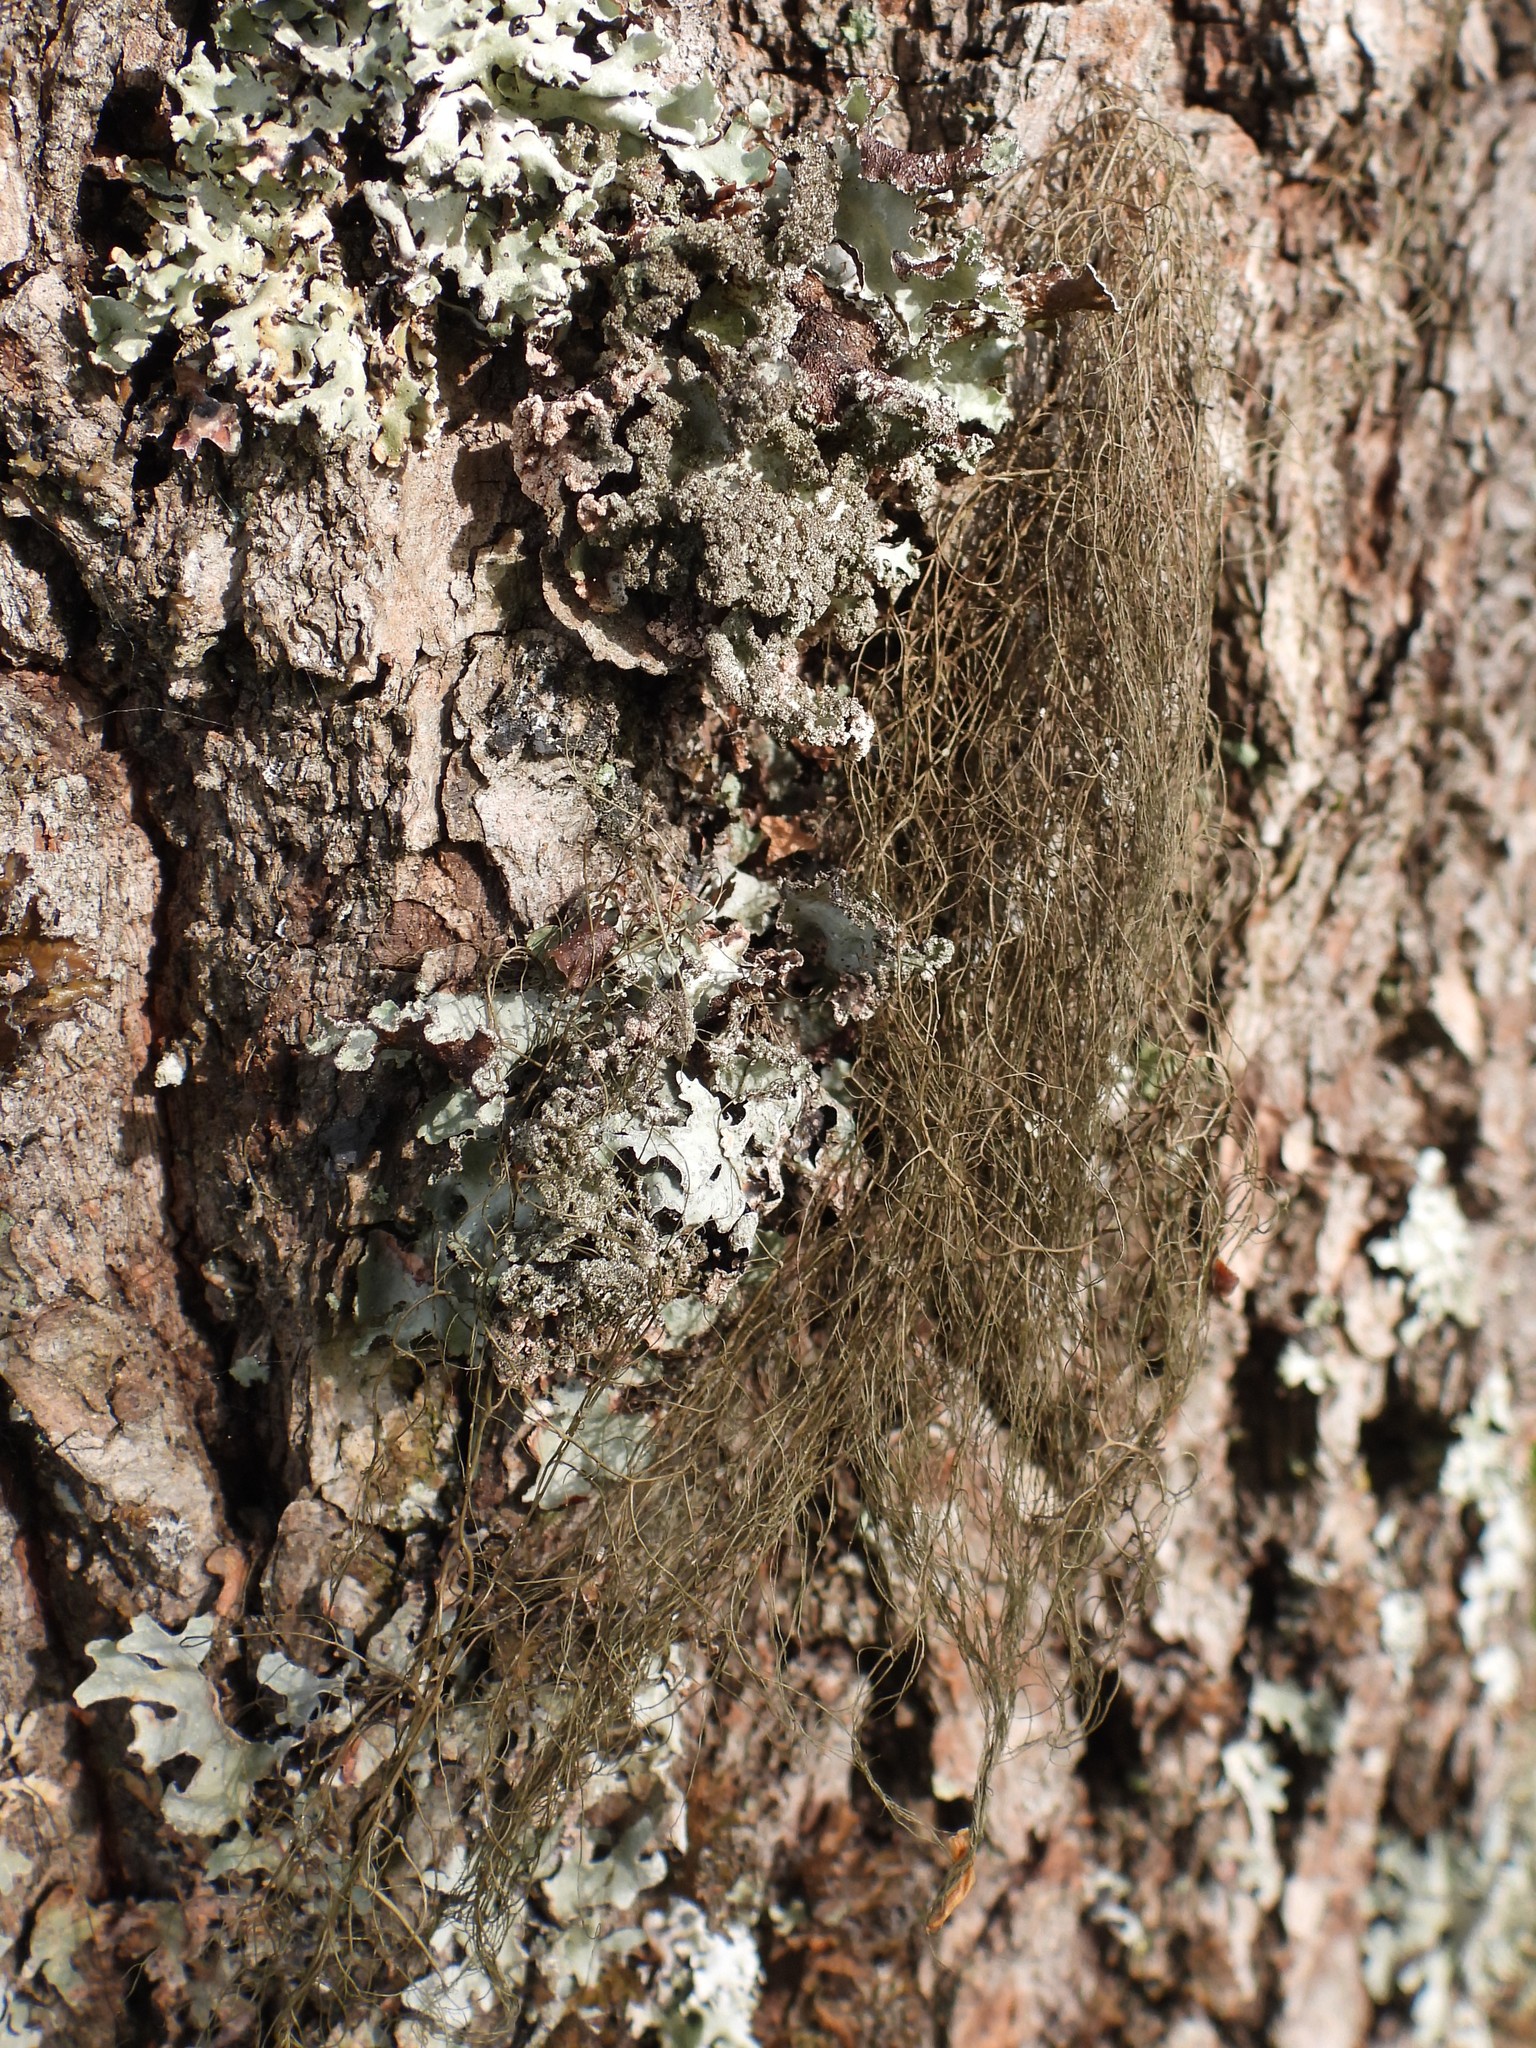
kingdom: Fungi
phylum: Ascomycota
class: Lecanoromycetes
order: Lecanorales
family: Parmeliaceae
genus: Bryoria
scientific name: Bryoria fuscescens
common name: Pale-footed horsehair lichen
